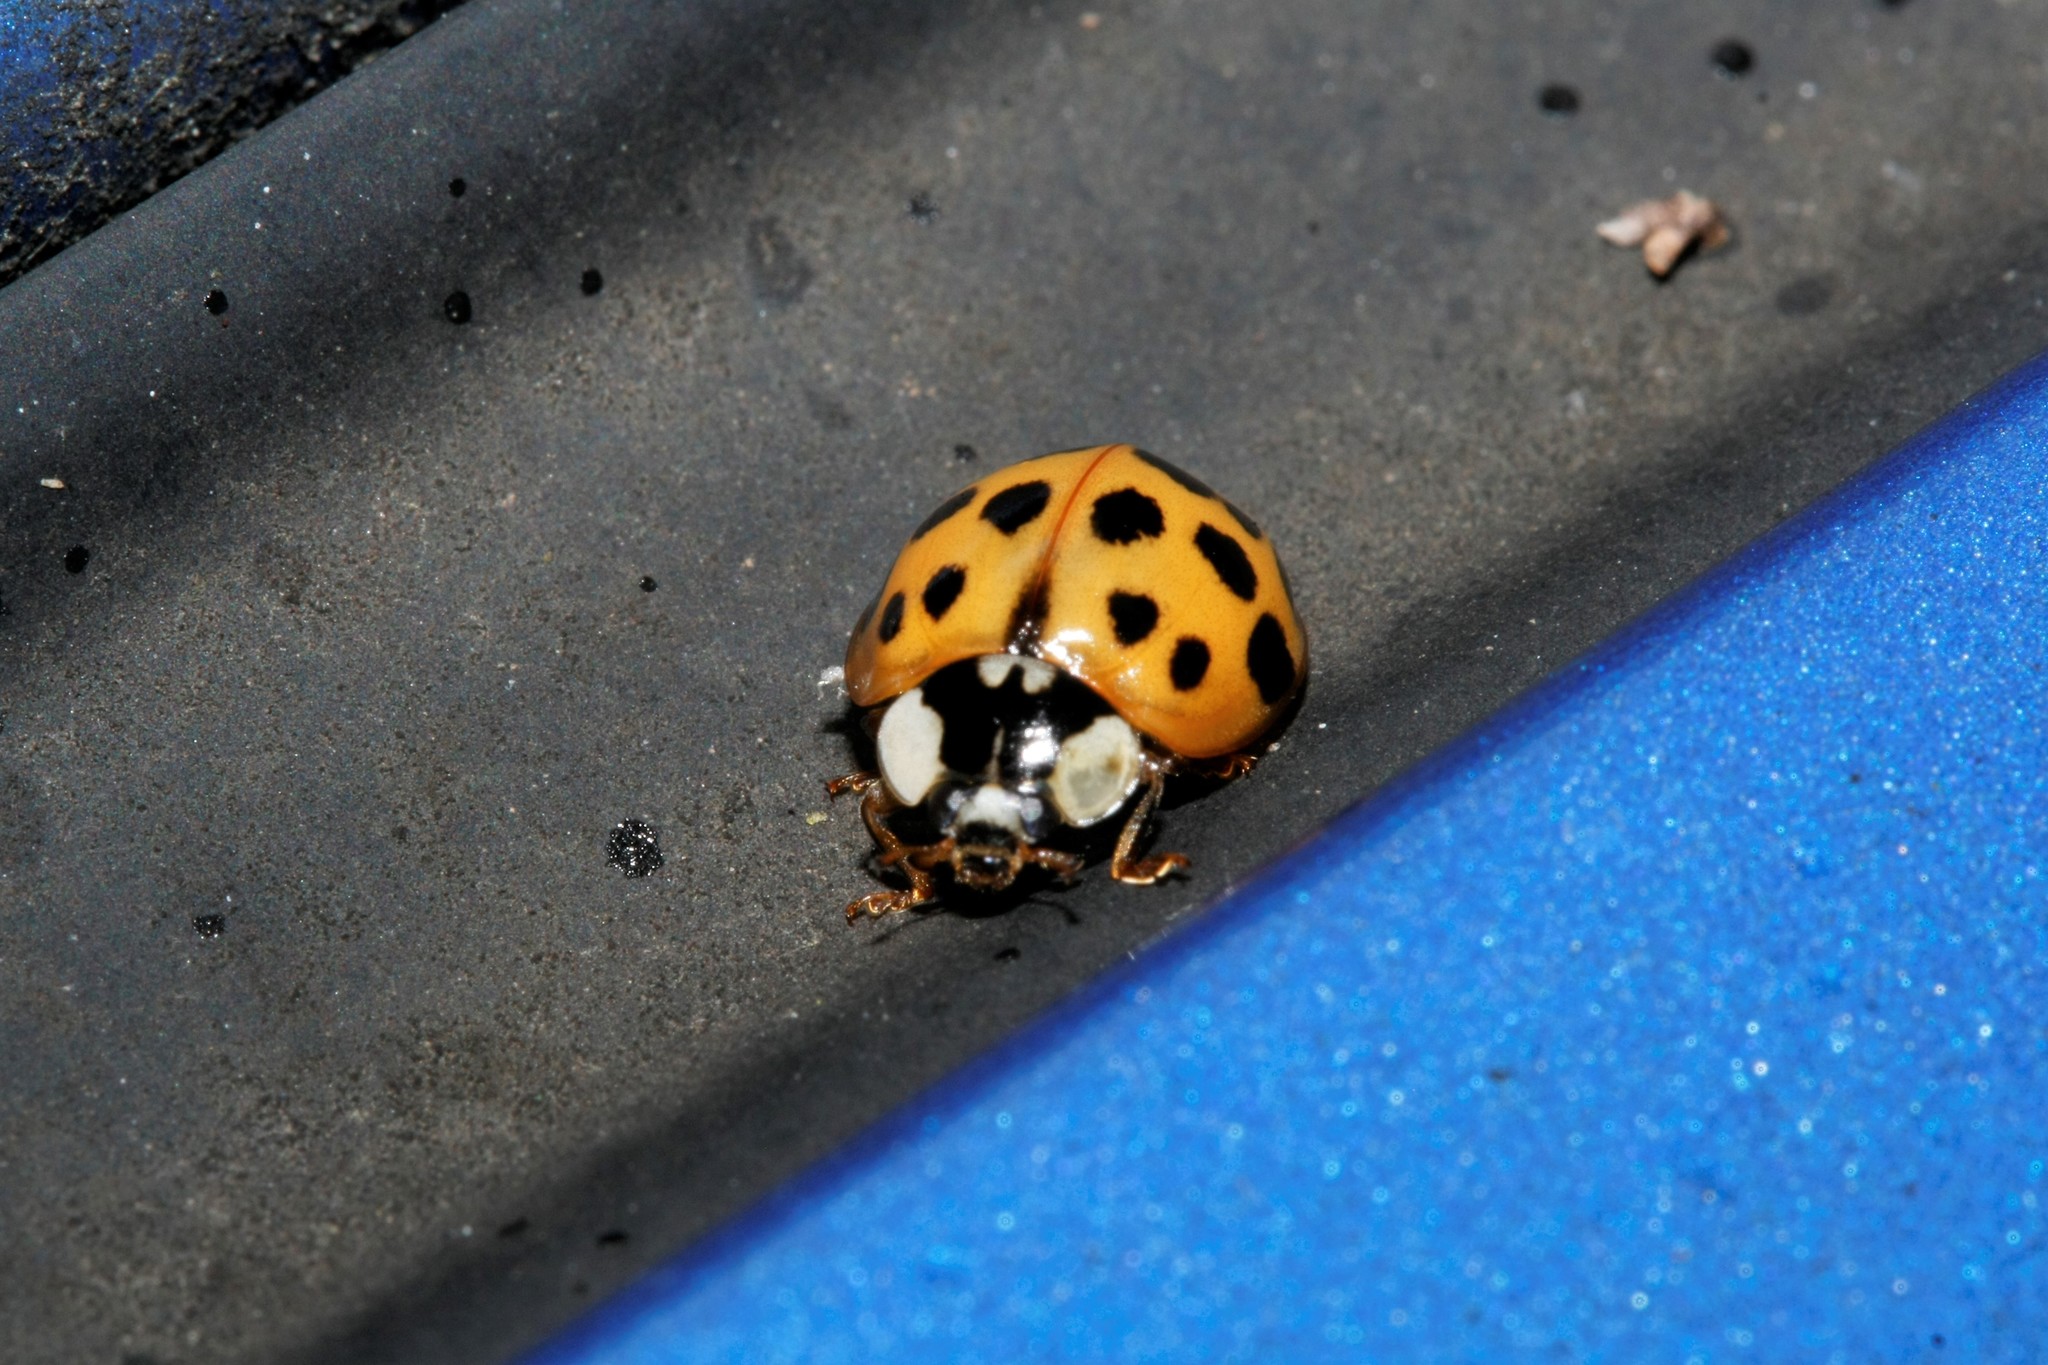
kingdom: Animalia
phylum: Arthropoda
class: Insecta
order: Coleoptera
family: Coccinellidae
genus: Harmonia
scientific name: Harmonia axyridis
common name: Harlequin ladybird
